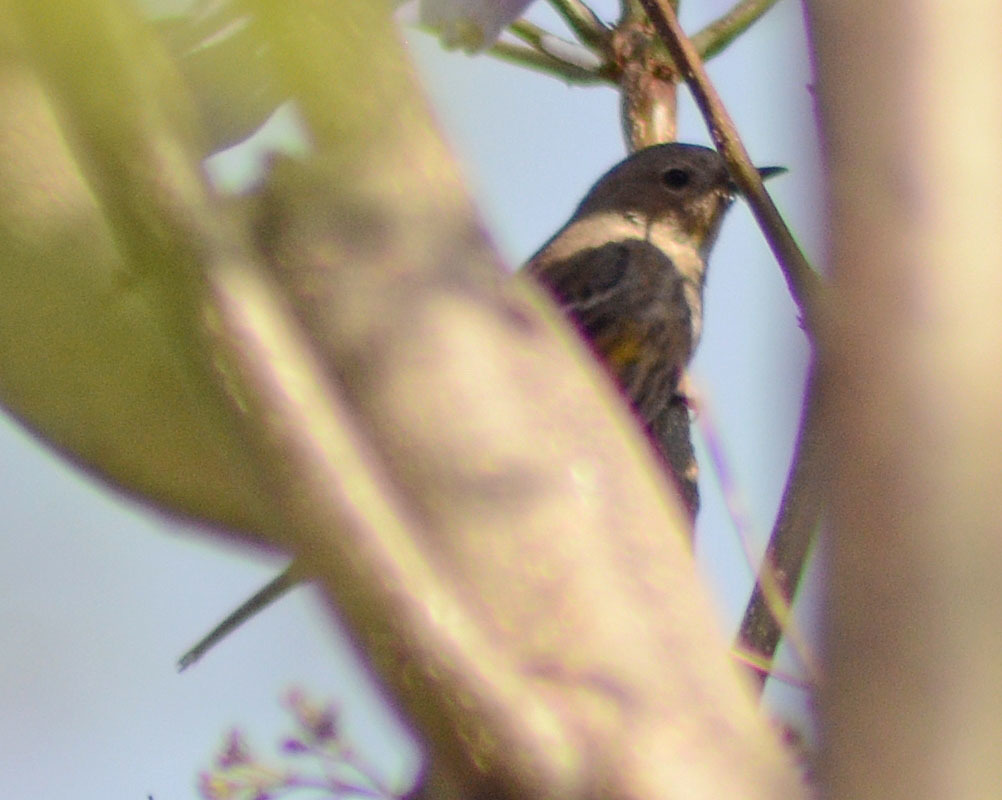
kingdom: Animalia
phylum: Chordata
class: Aves
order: Passeriformes
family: Parulidae
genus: Setophaga
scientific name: Setophaga coronata
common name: Myrtle warbler
